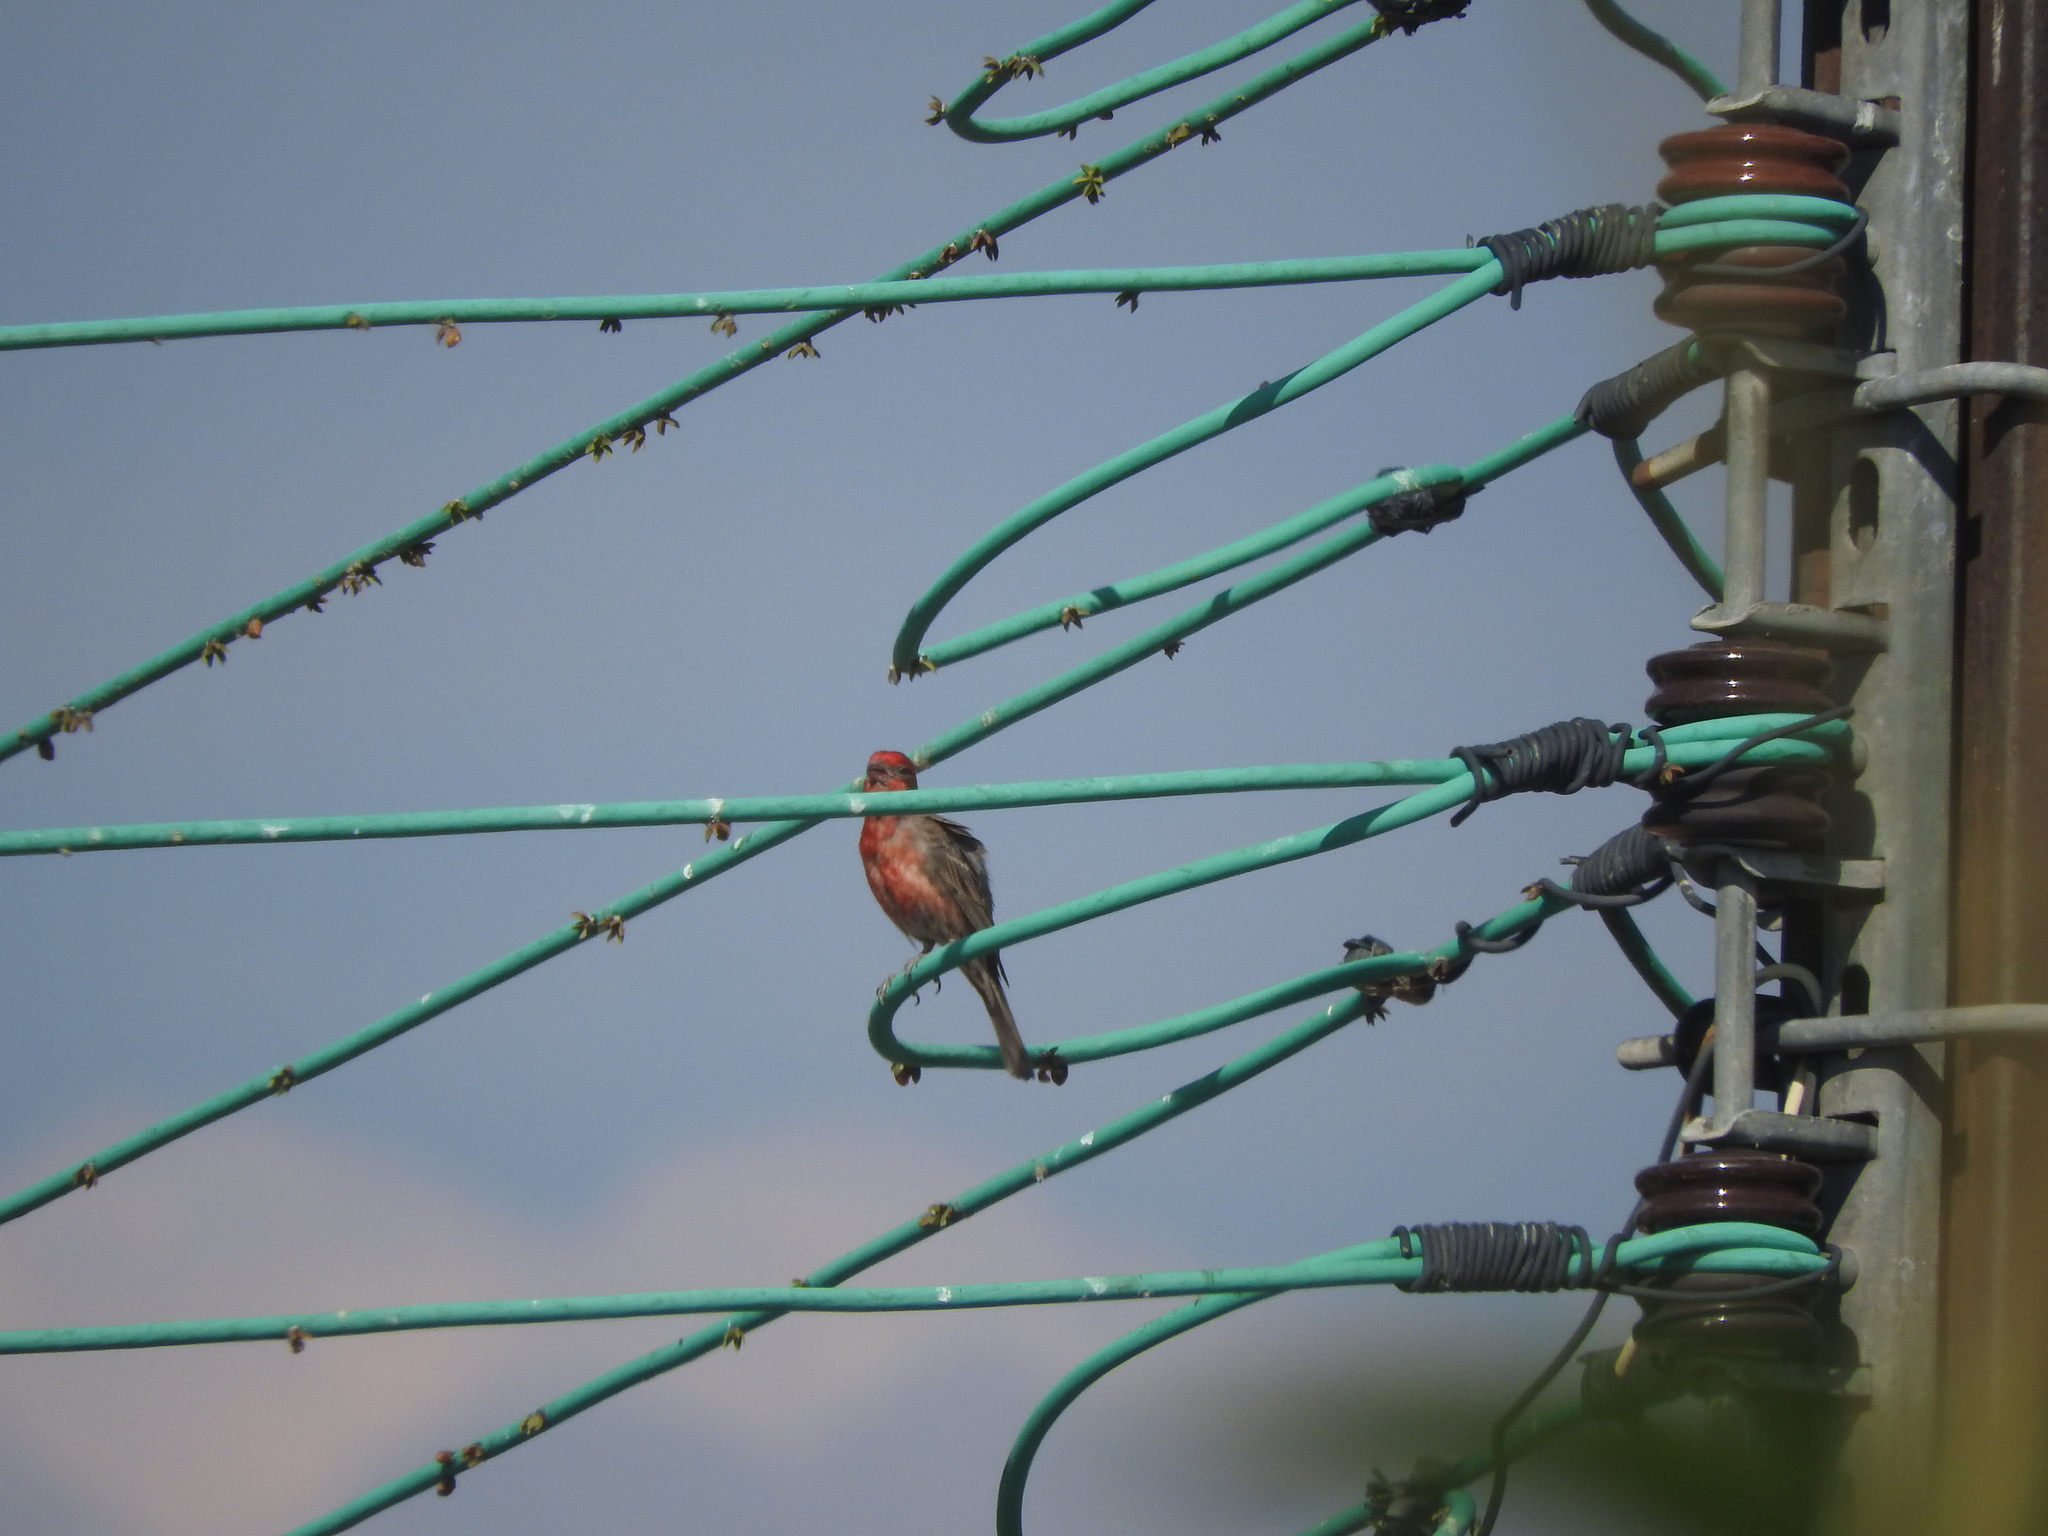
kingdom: Animalia
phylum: Chordata
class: Aves
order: Passeriformes
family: Fringillidae
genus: Haemorhous
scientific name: Haemorhous mexicanus
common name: House finch
